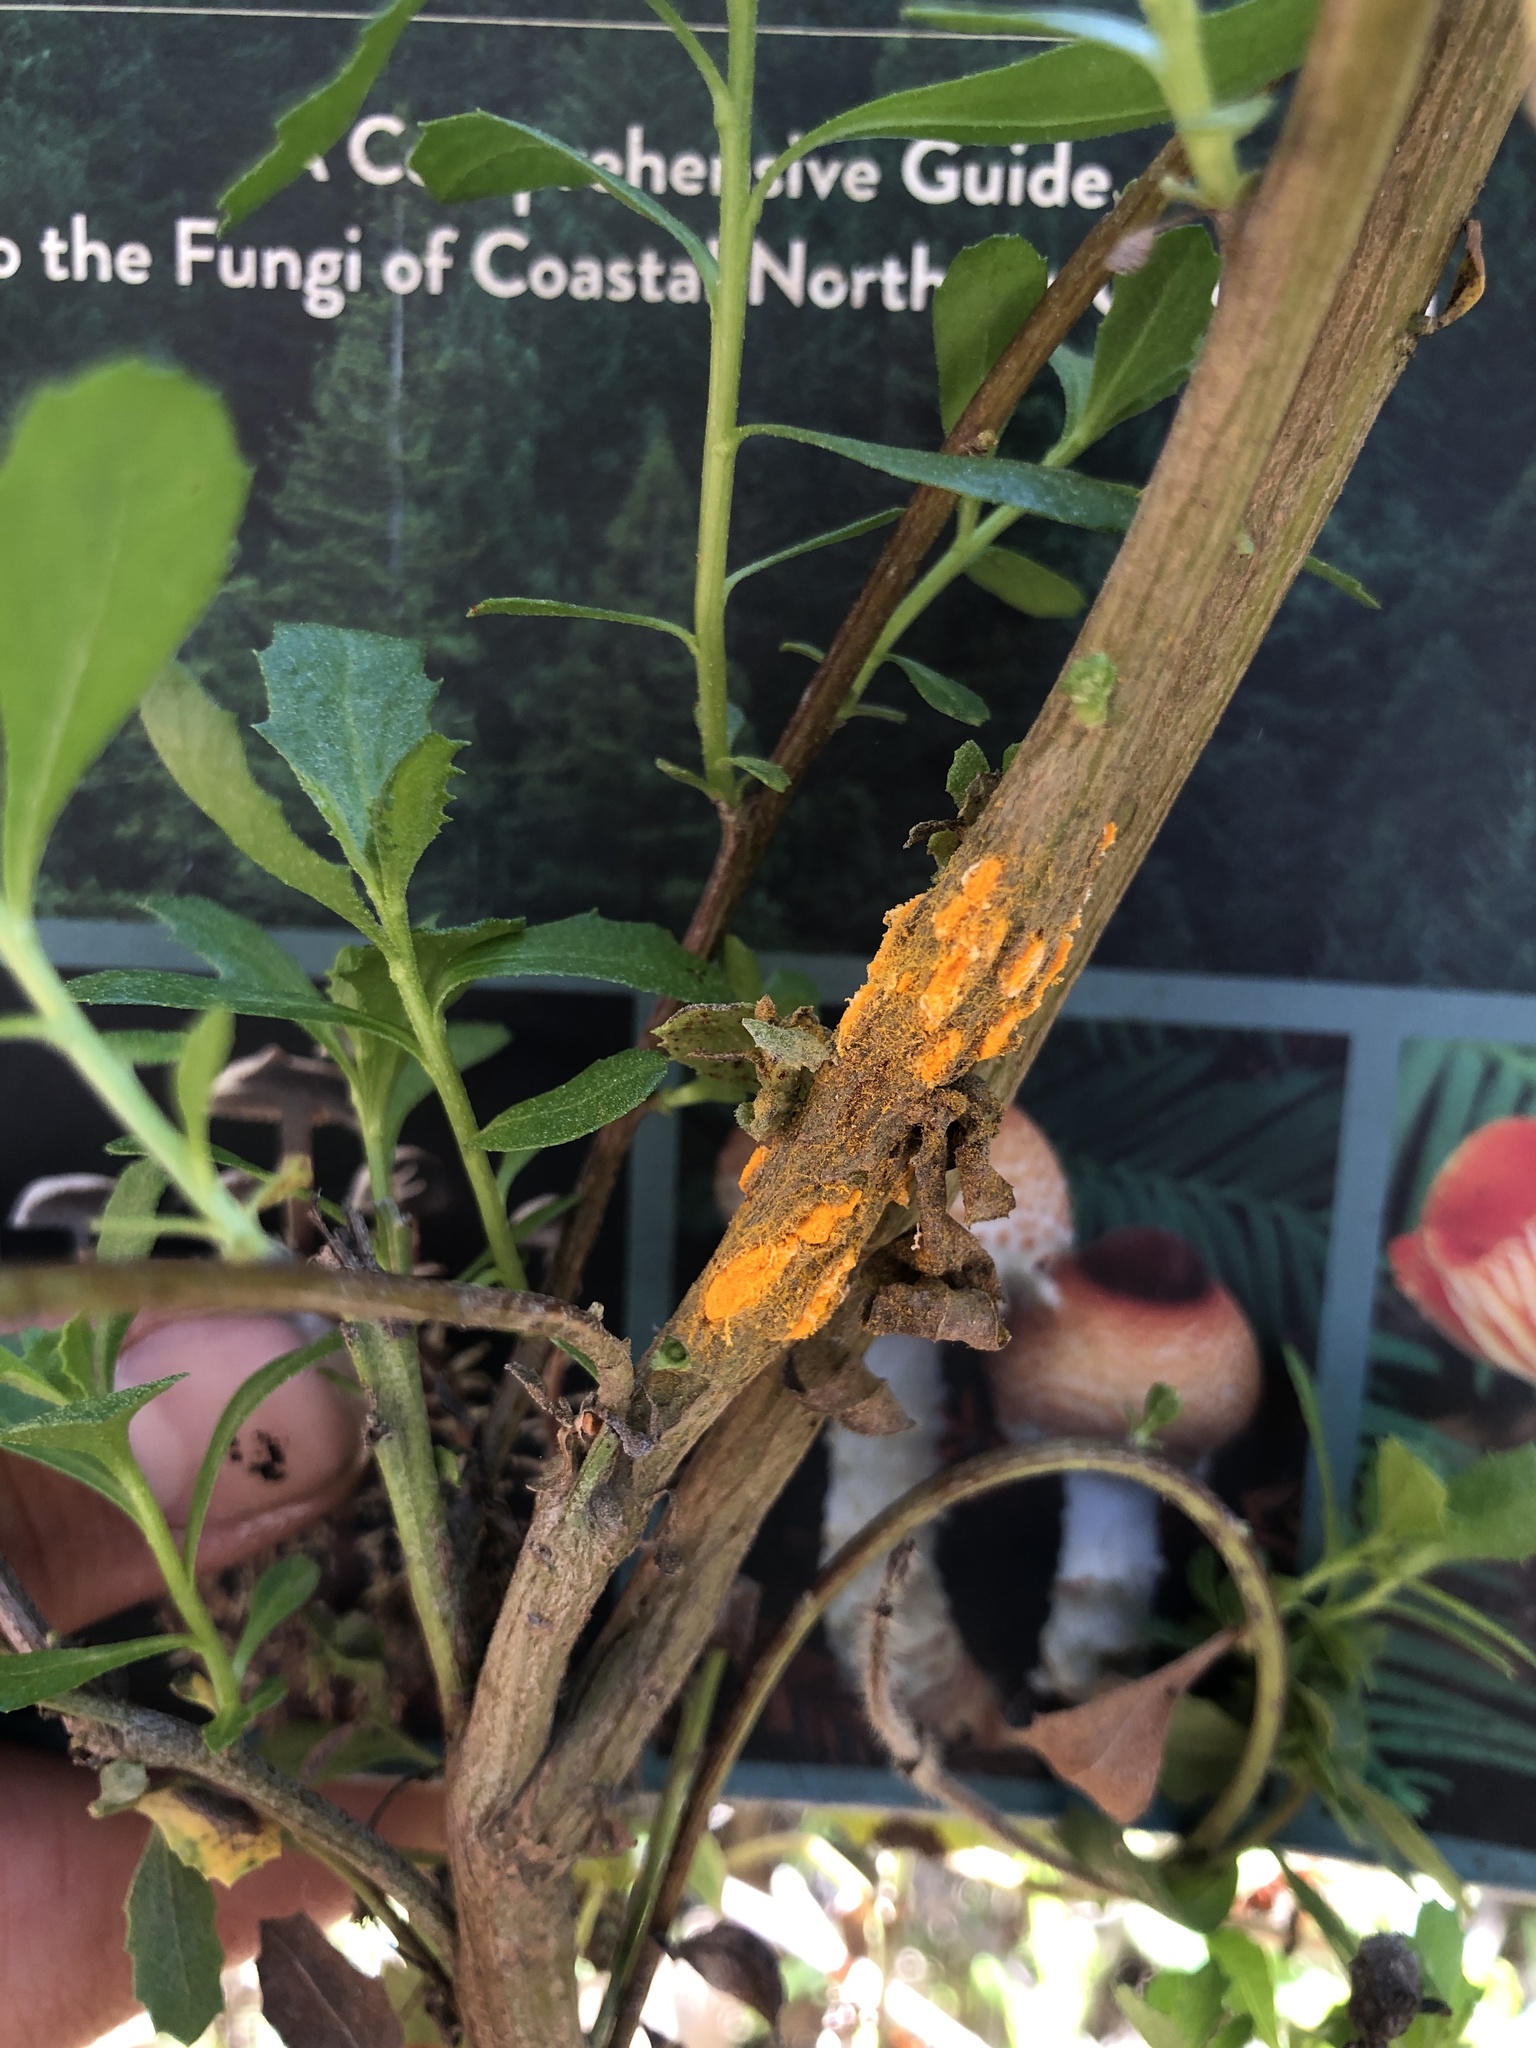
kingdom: Fungi
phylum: Basidiomycota
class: Pucciniomycetes
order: Pucciniales
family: Pucciniaceae
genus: Eriosporangium
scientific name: Eriosporangium evadens
